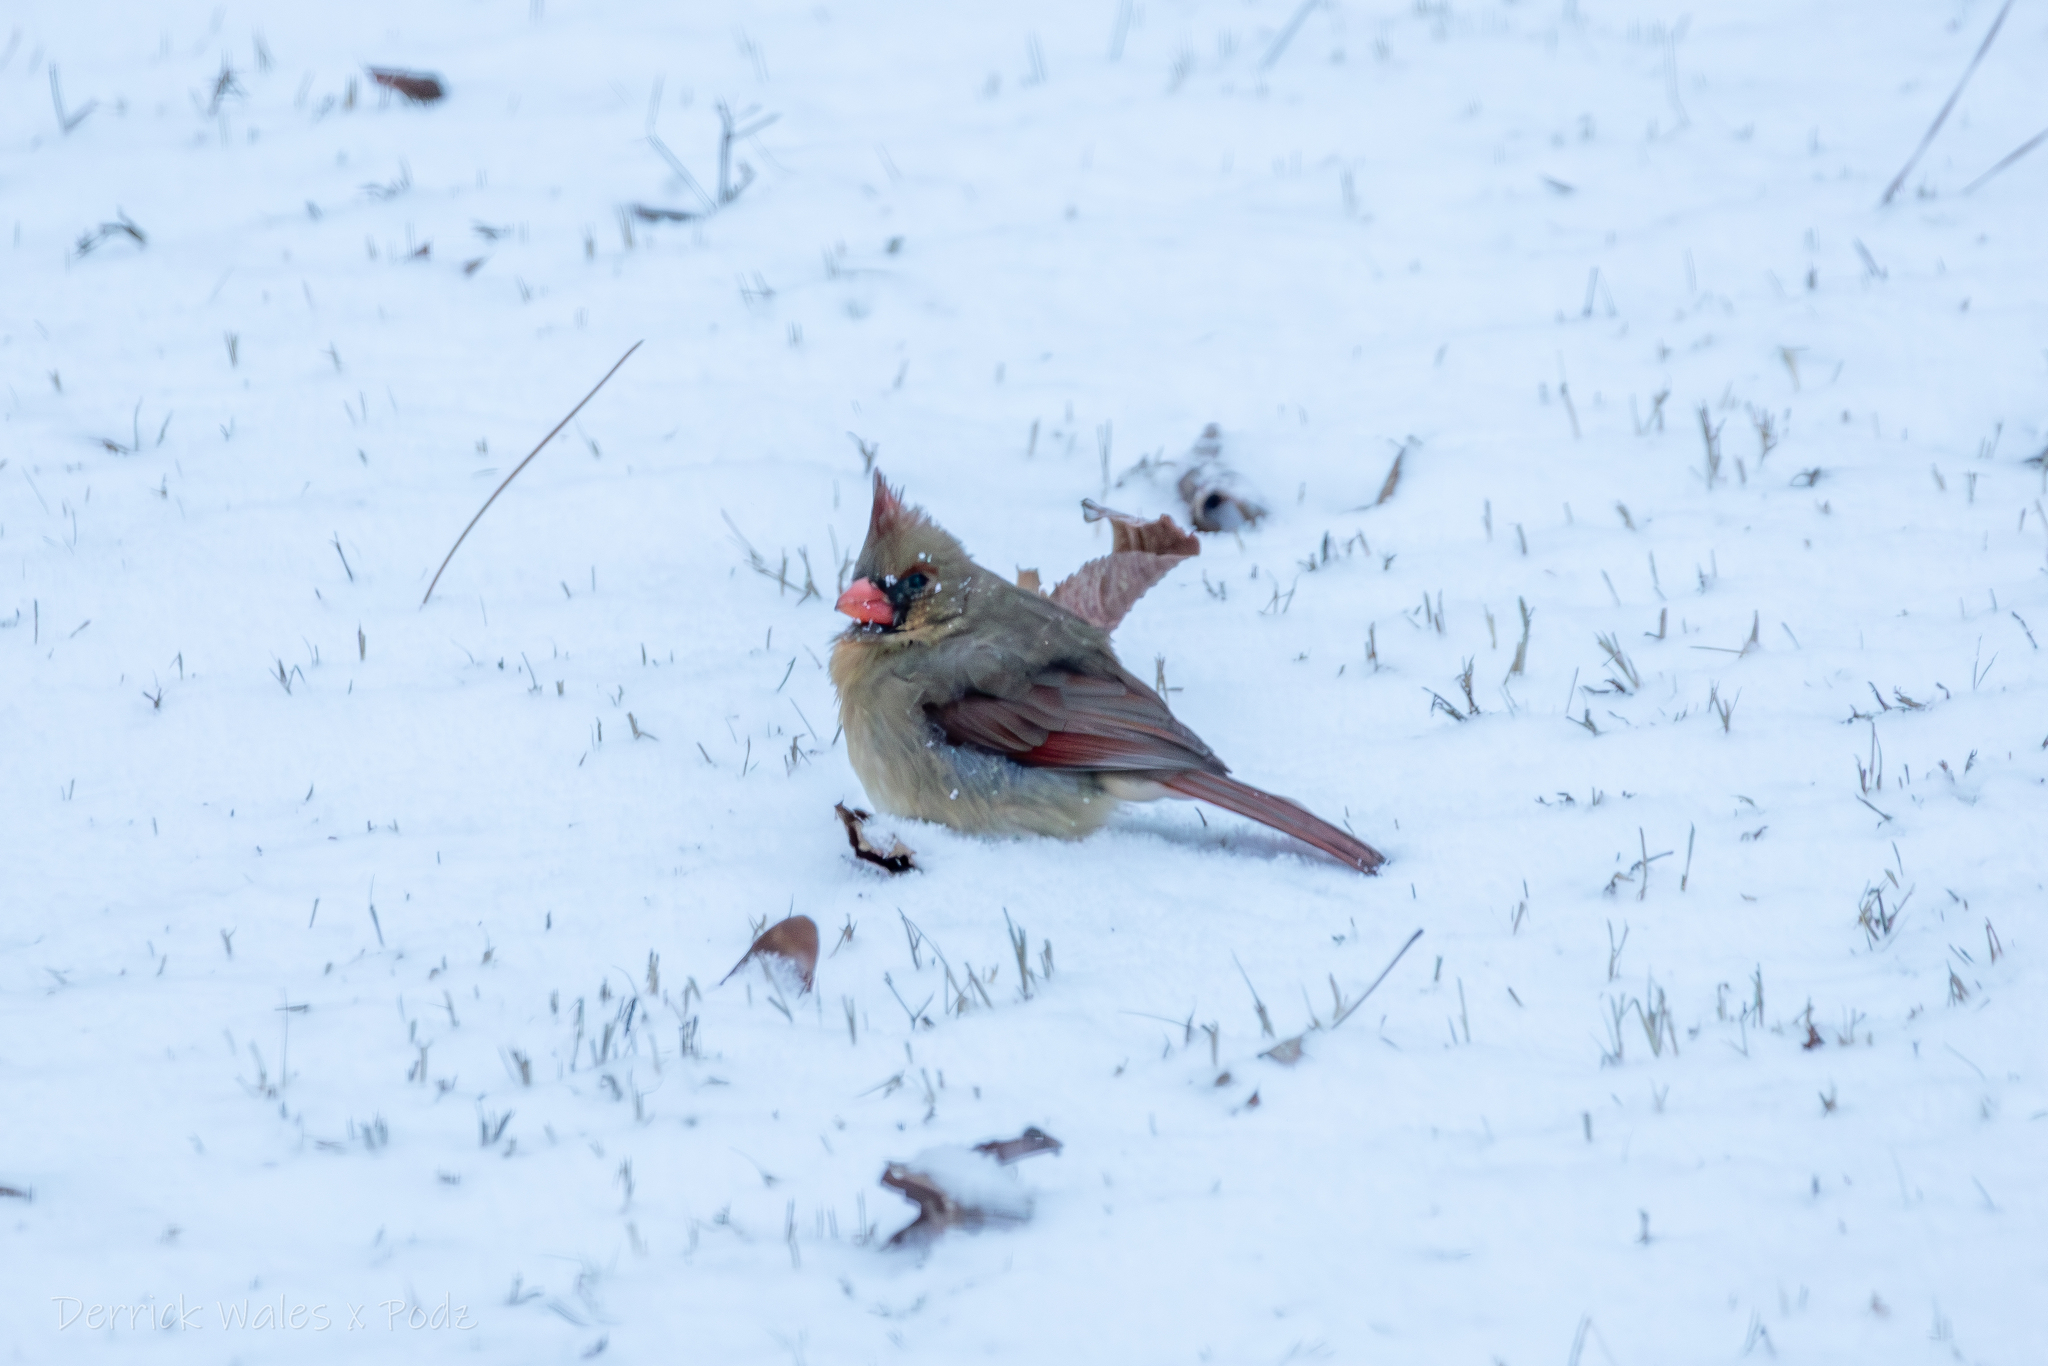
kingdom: Animalia
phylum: Chordata
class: Aves
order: Passeriformes
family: Cardinalidae
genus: Cardinalis
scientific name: Cardinalis cardinalis
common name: Northern cardinal
